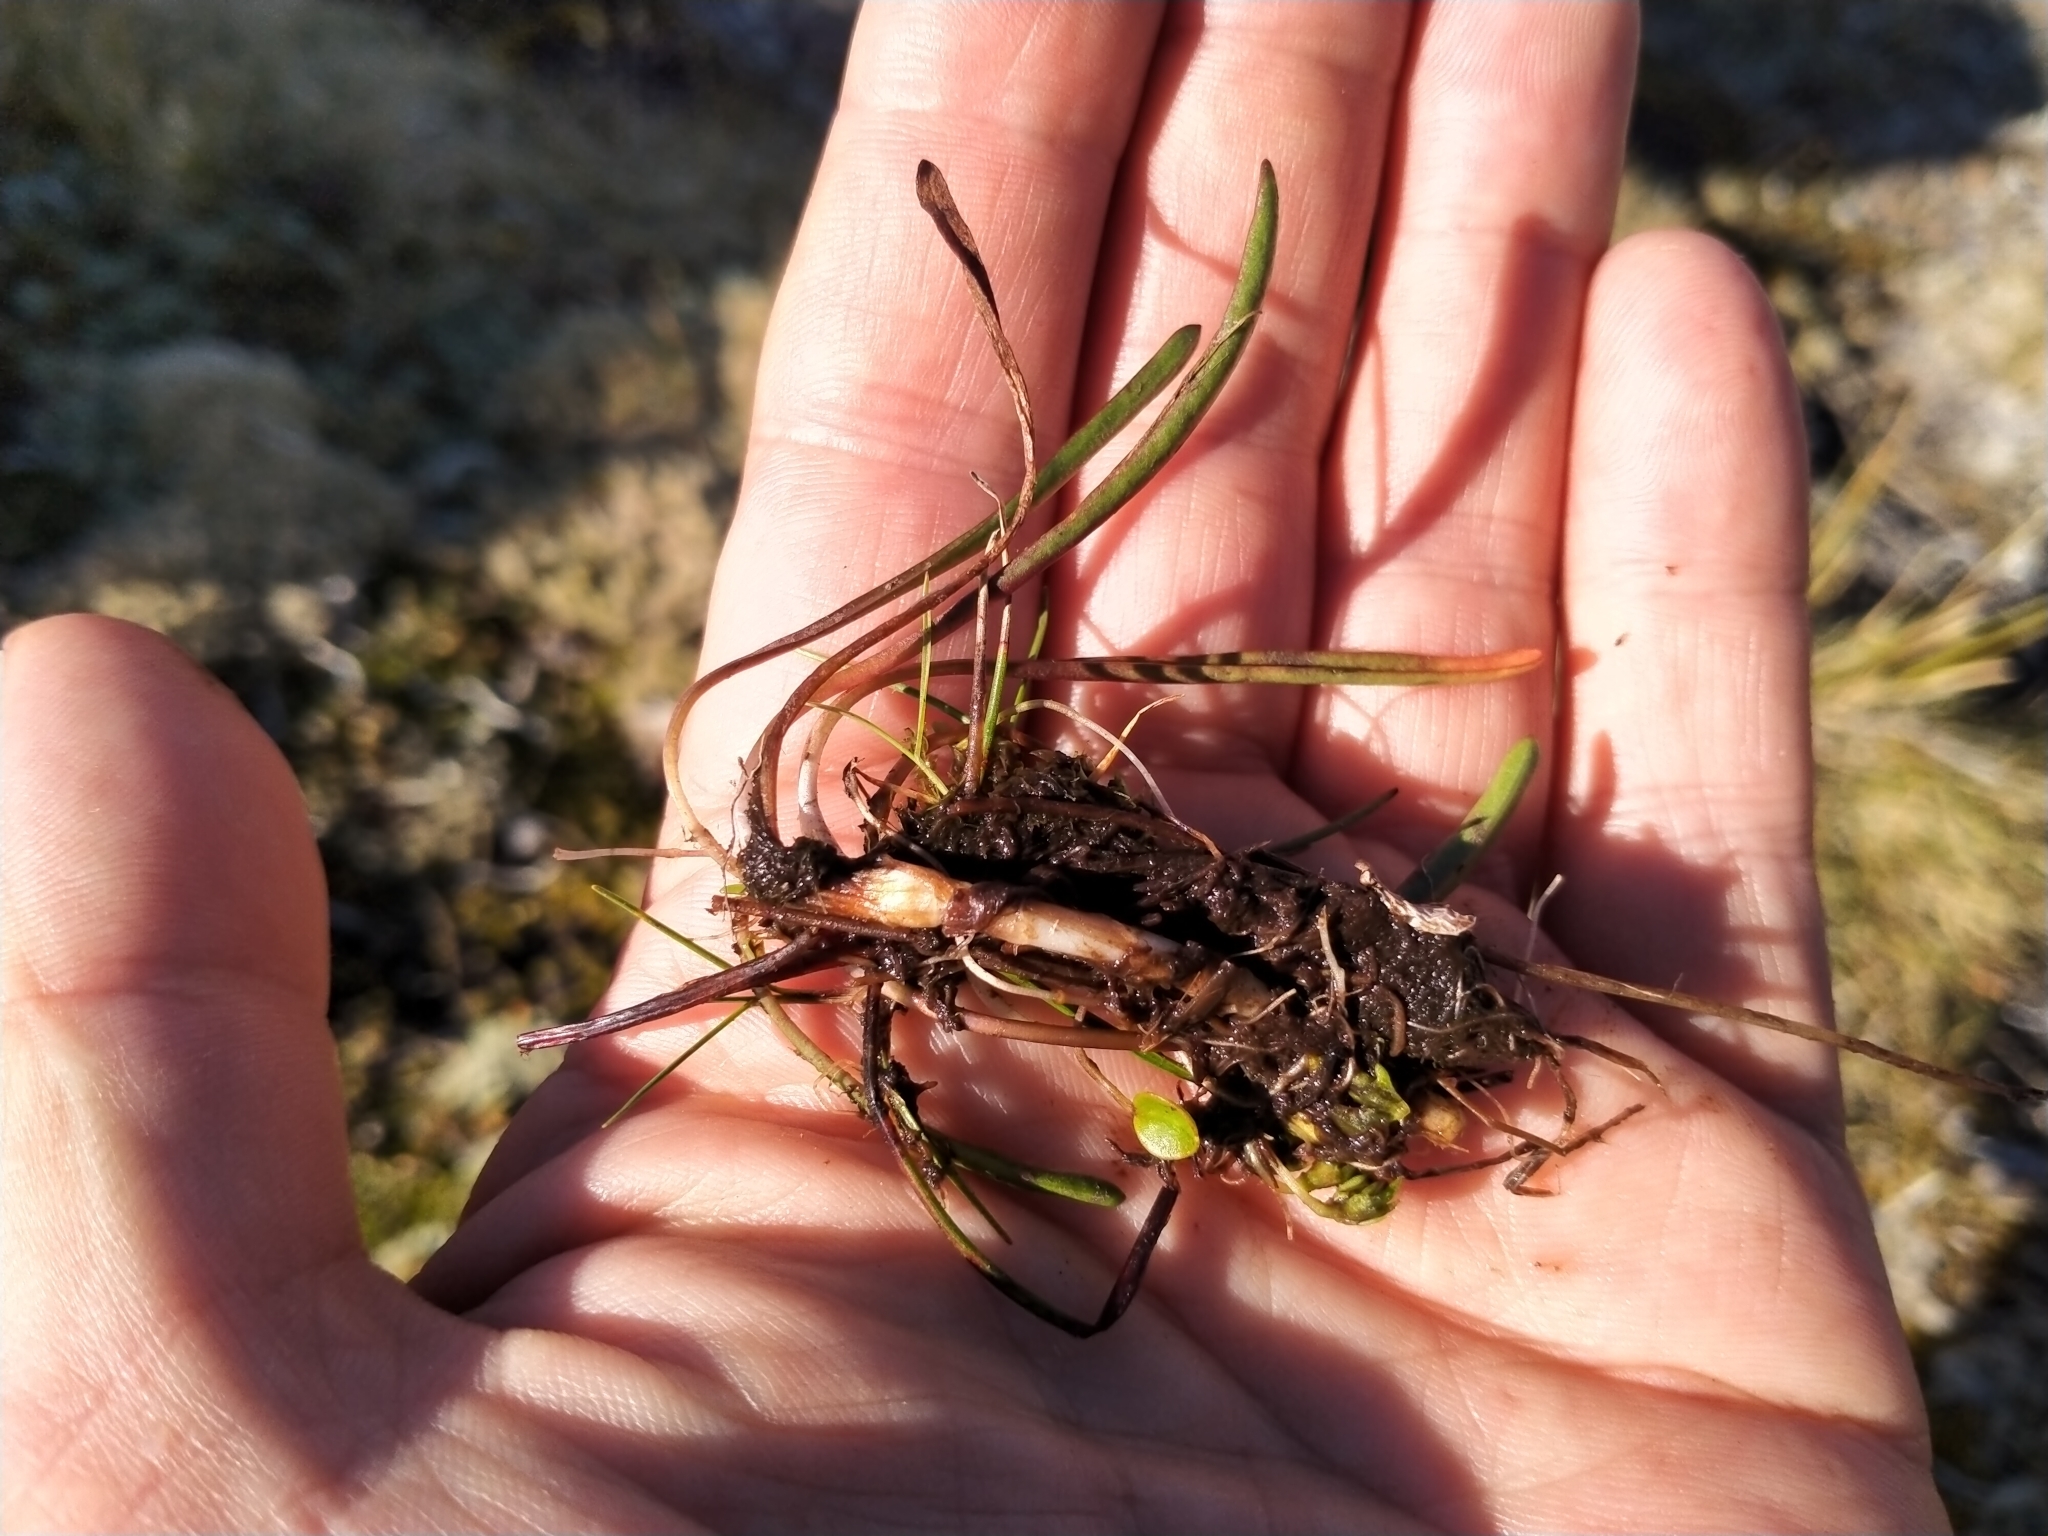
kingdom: Plantae
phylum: Tracheophyta
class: Magnoliopsida
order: Asterales
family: Asteraceae
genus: Microseris
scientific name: Microseris scapigera
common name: Yam daisy
